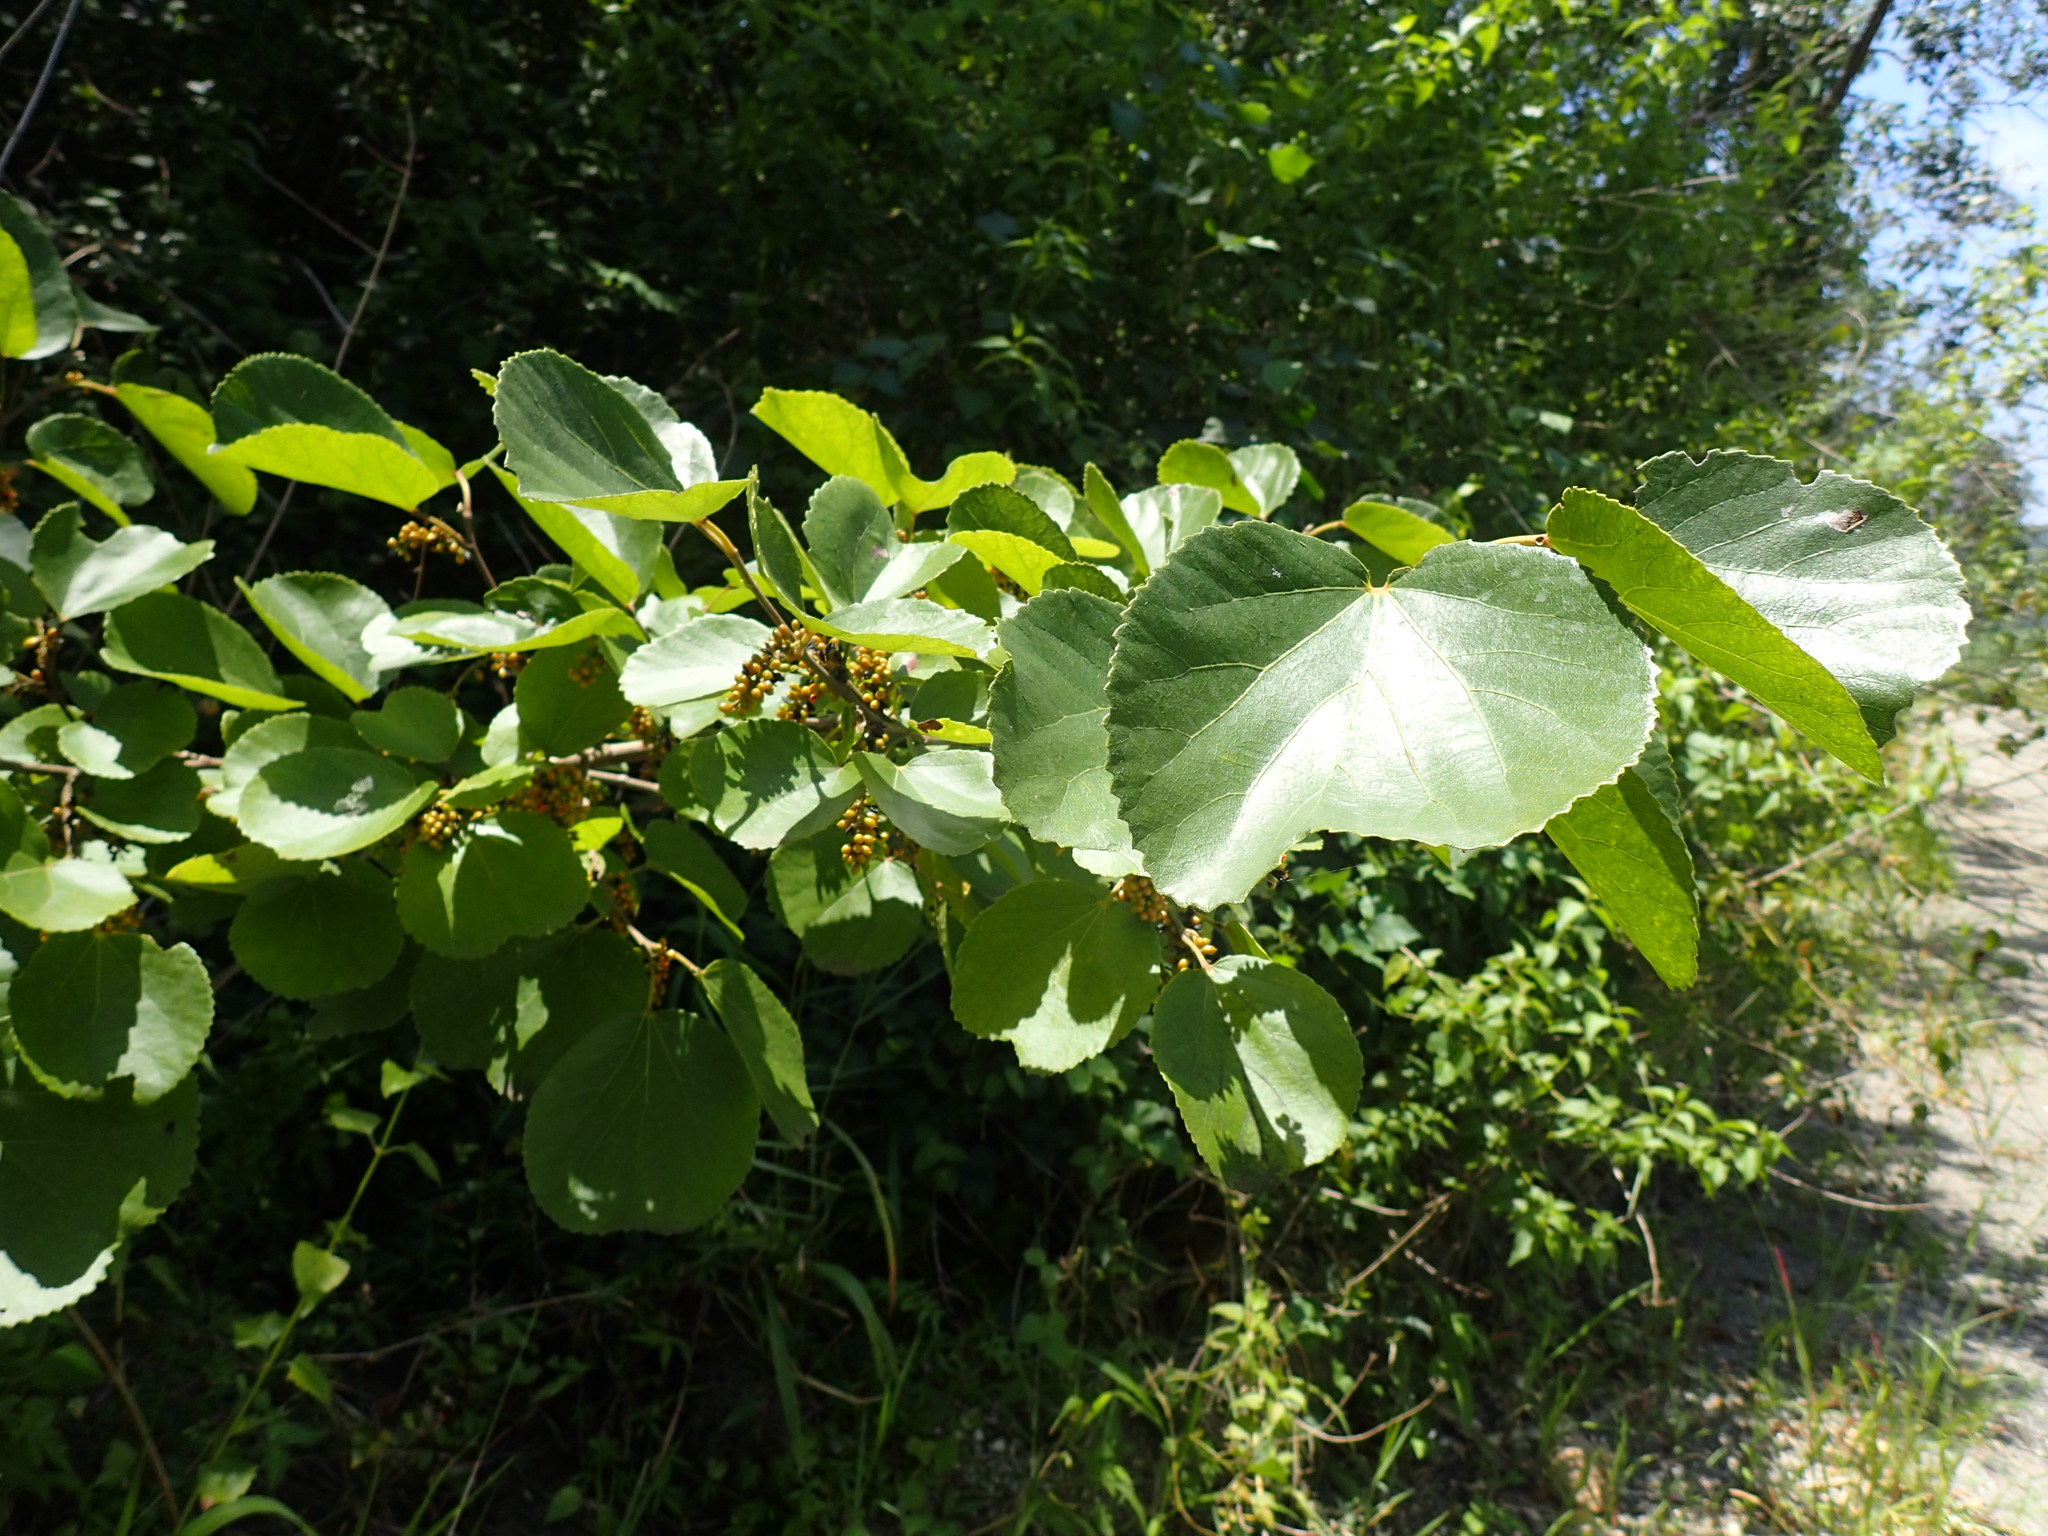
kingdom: Plantae
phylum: Tracheophyta
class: Magnoliopsida
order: Malpighiales
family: Salicaceae
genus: Trimeria
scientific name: Trimeria grandifolia
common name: Wild mulberry
